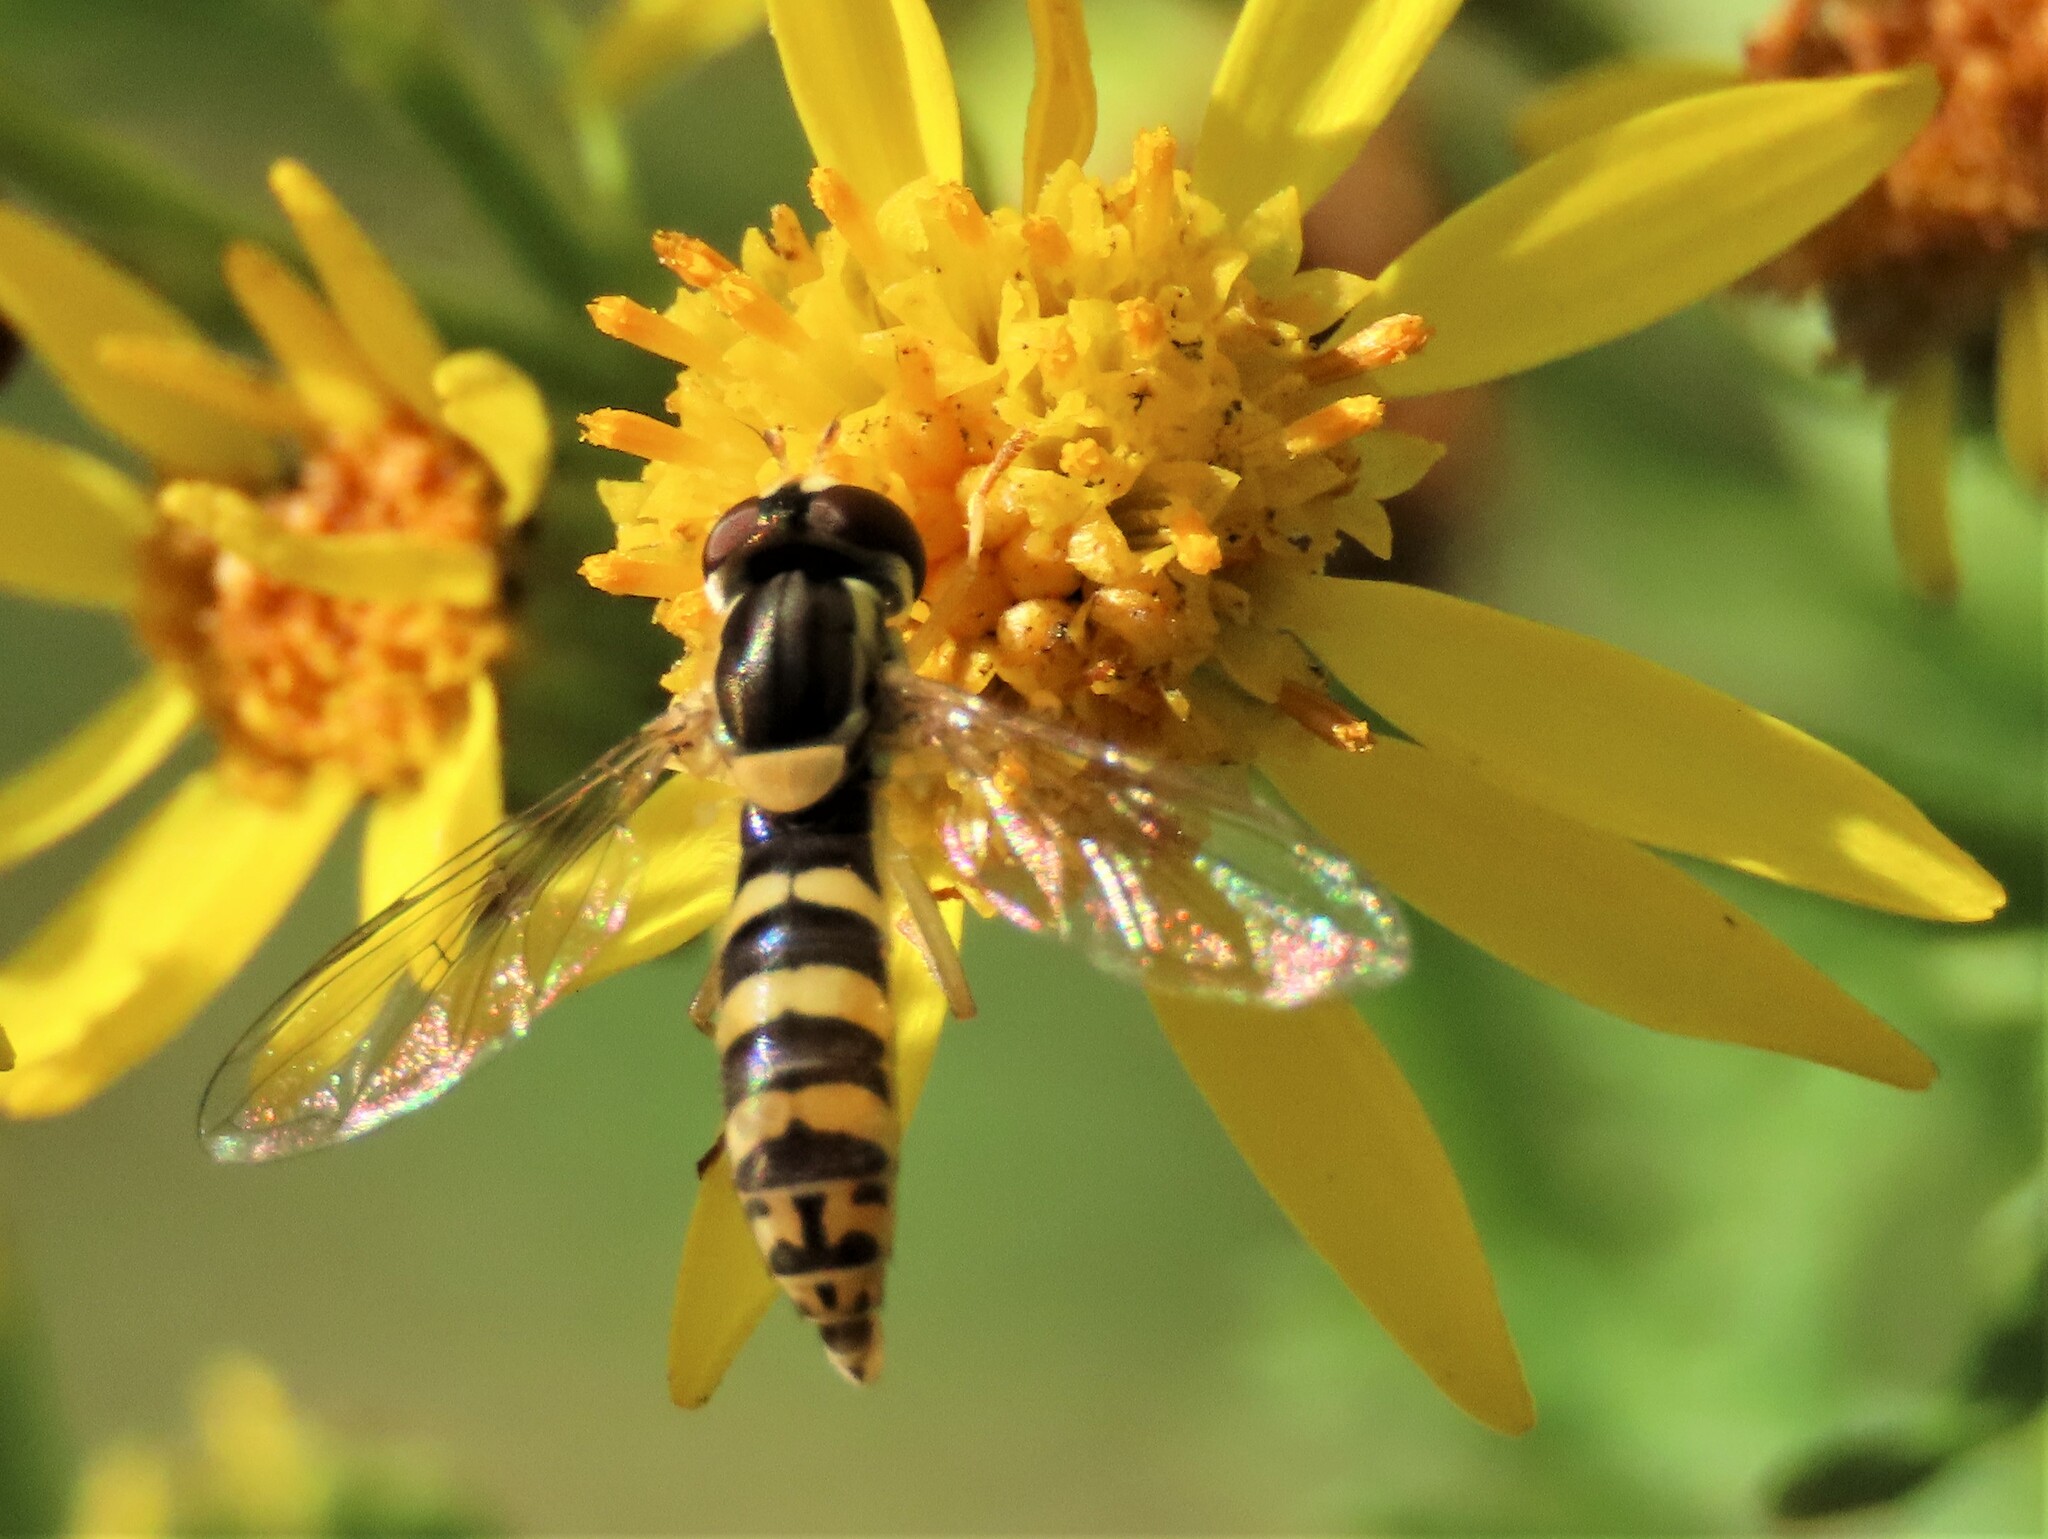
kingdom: Animalia
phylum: Arthropoda
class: Insecta
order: Diptera
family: Syrphidae
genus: Sphaerophoria
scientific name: Sphaerophoria
